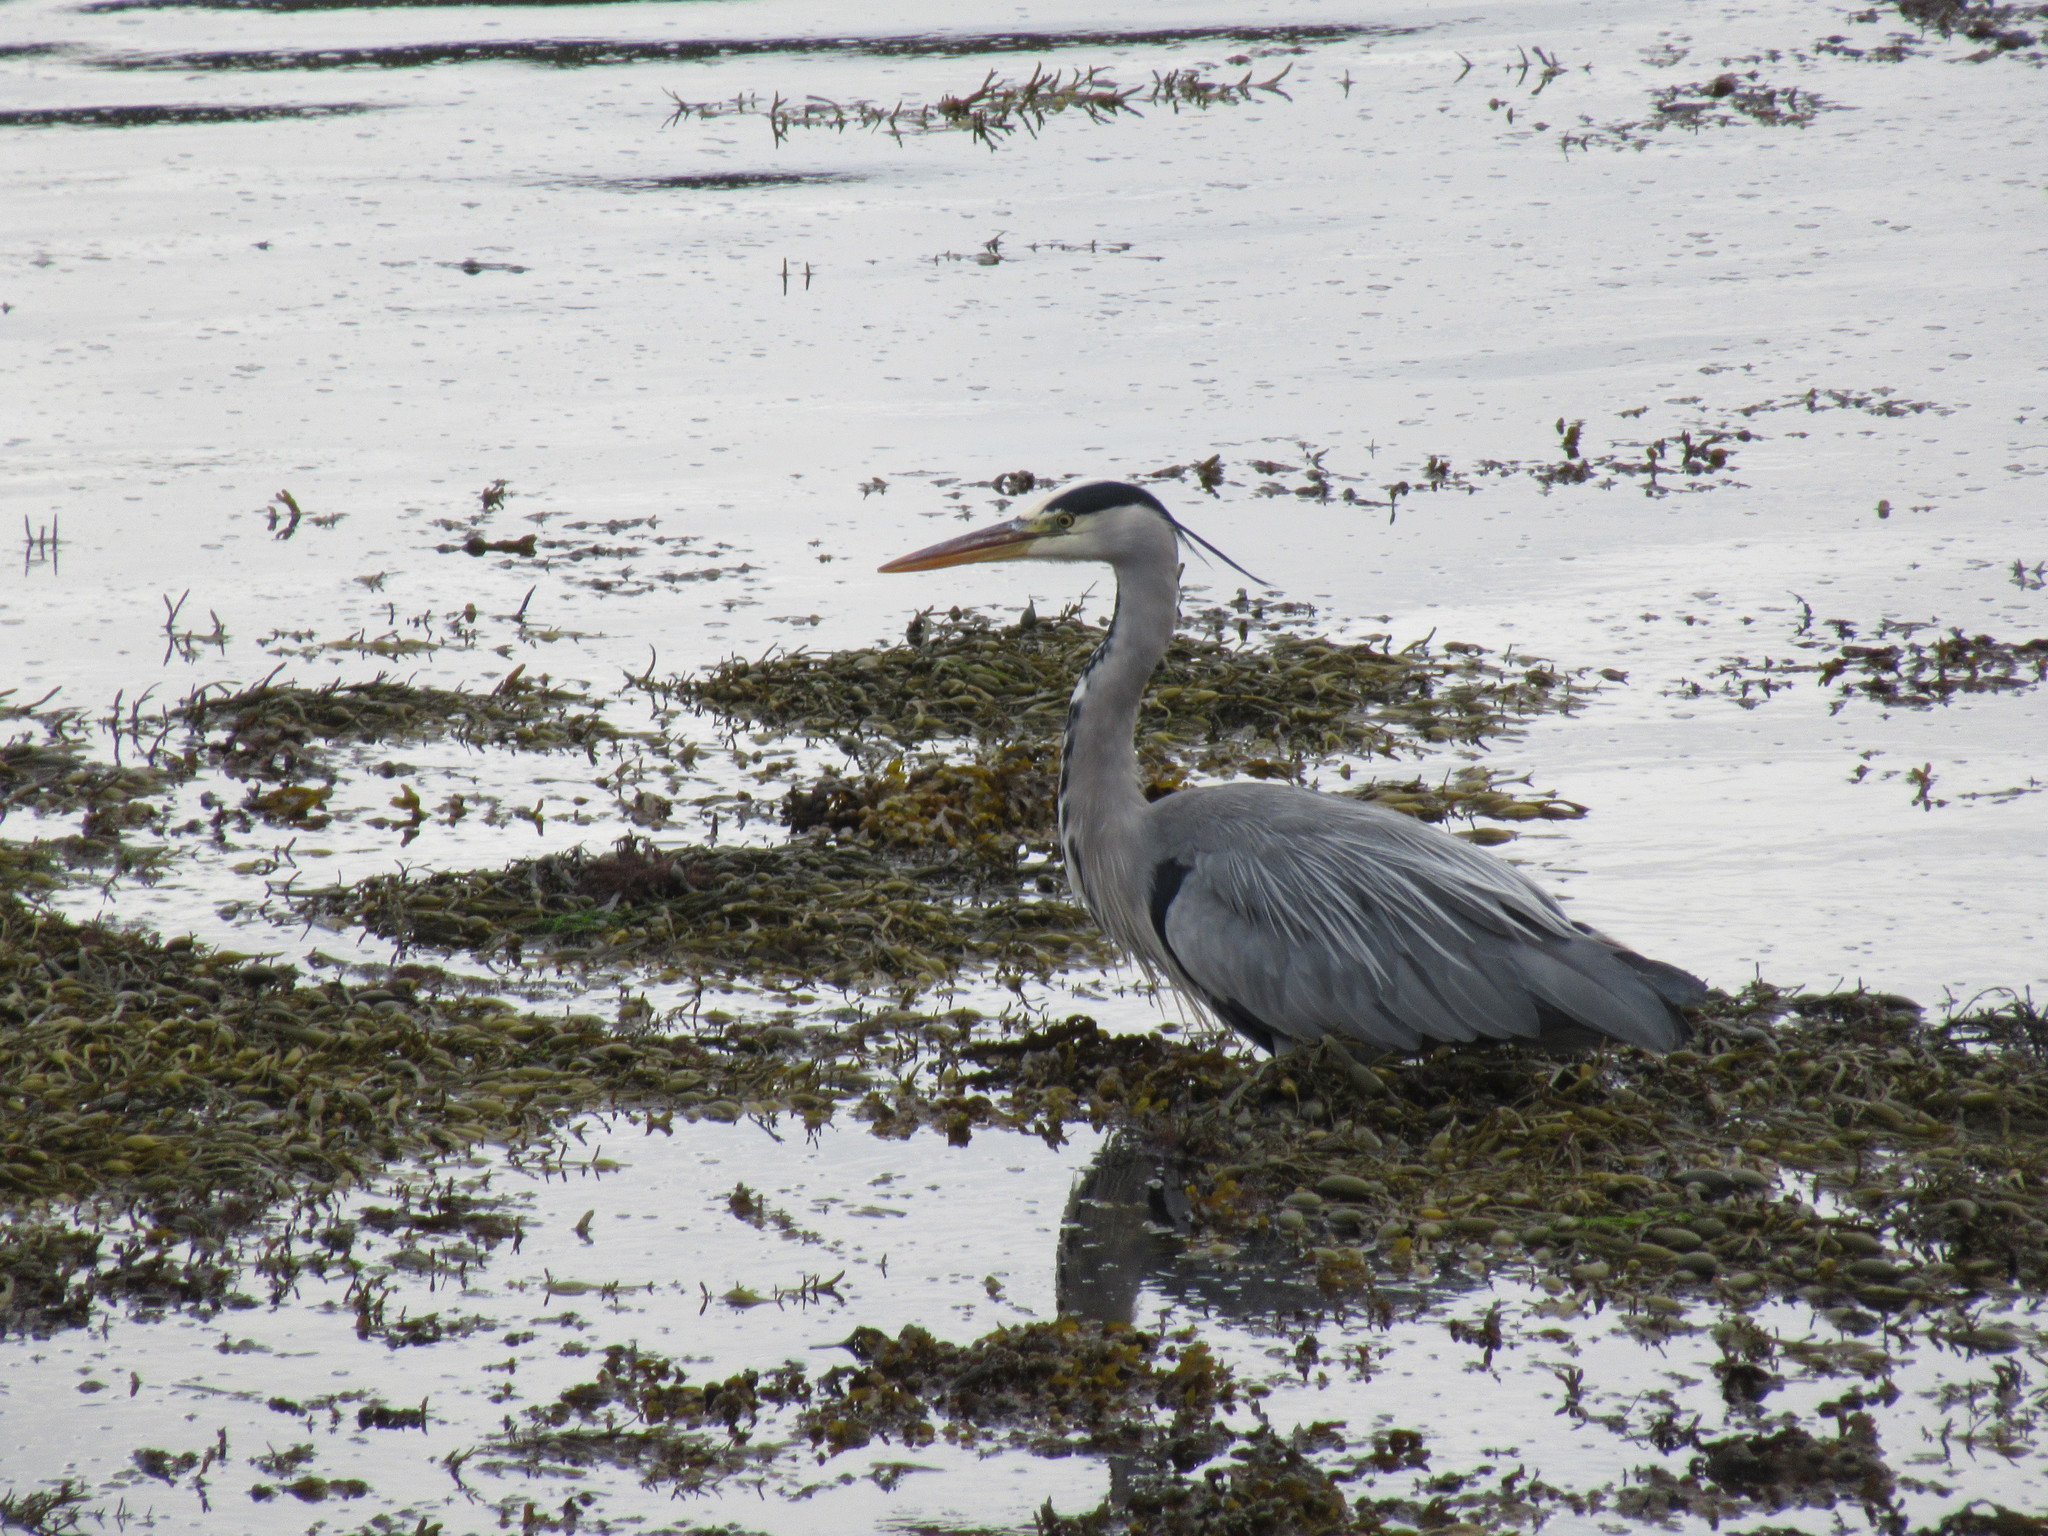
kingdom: Animalia
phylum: Chordata
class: Aves
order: Pelecaniformes
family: Ardeidae
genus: Ardea
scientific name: Ardea cinerea
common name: Grey heron
